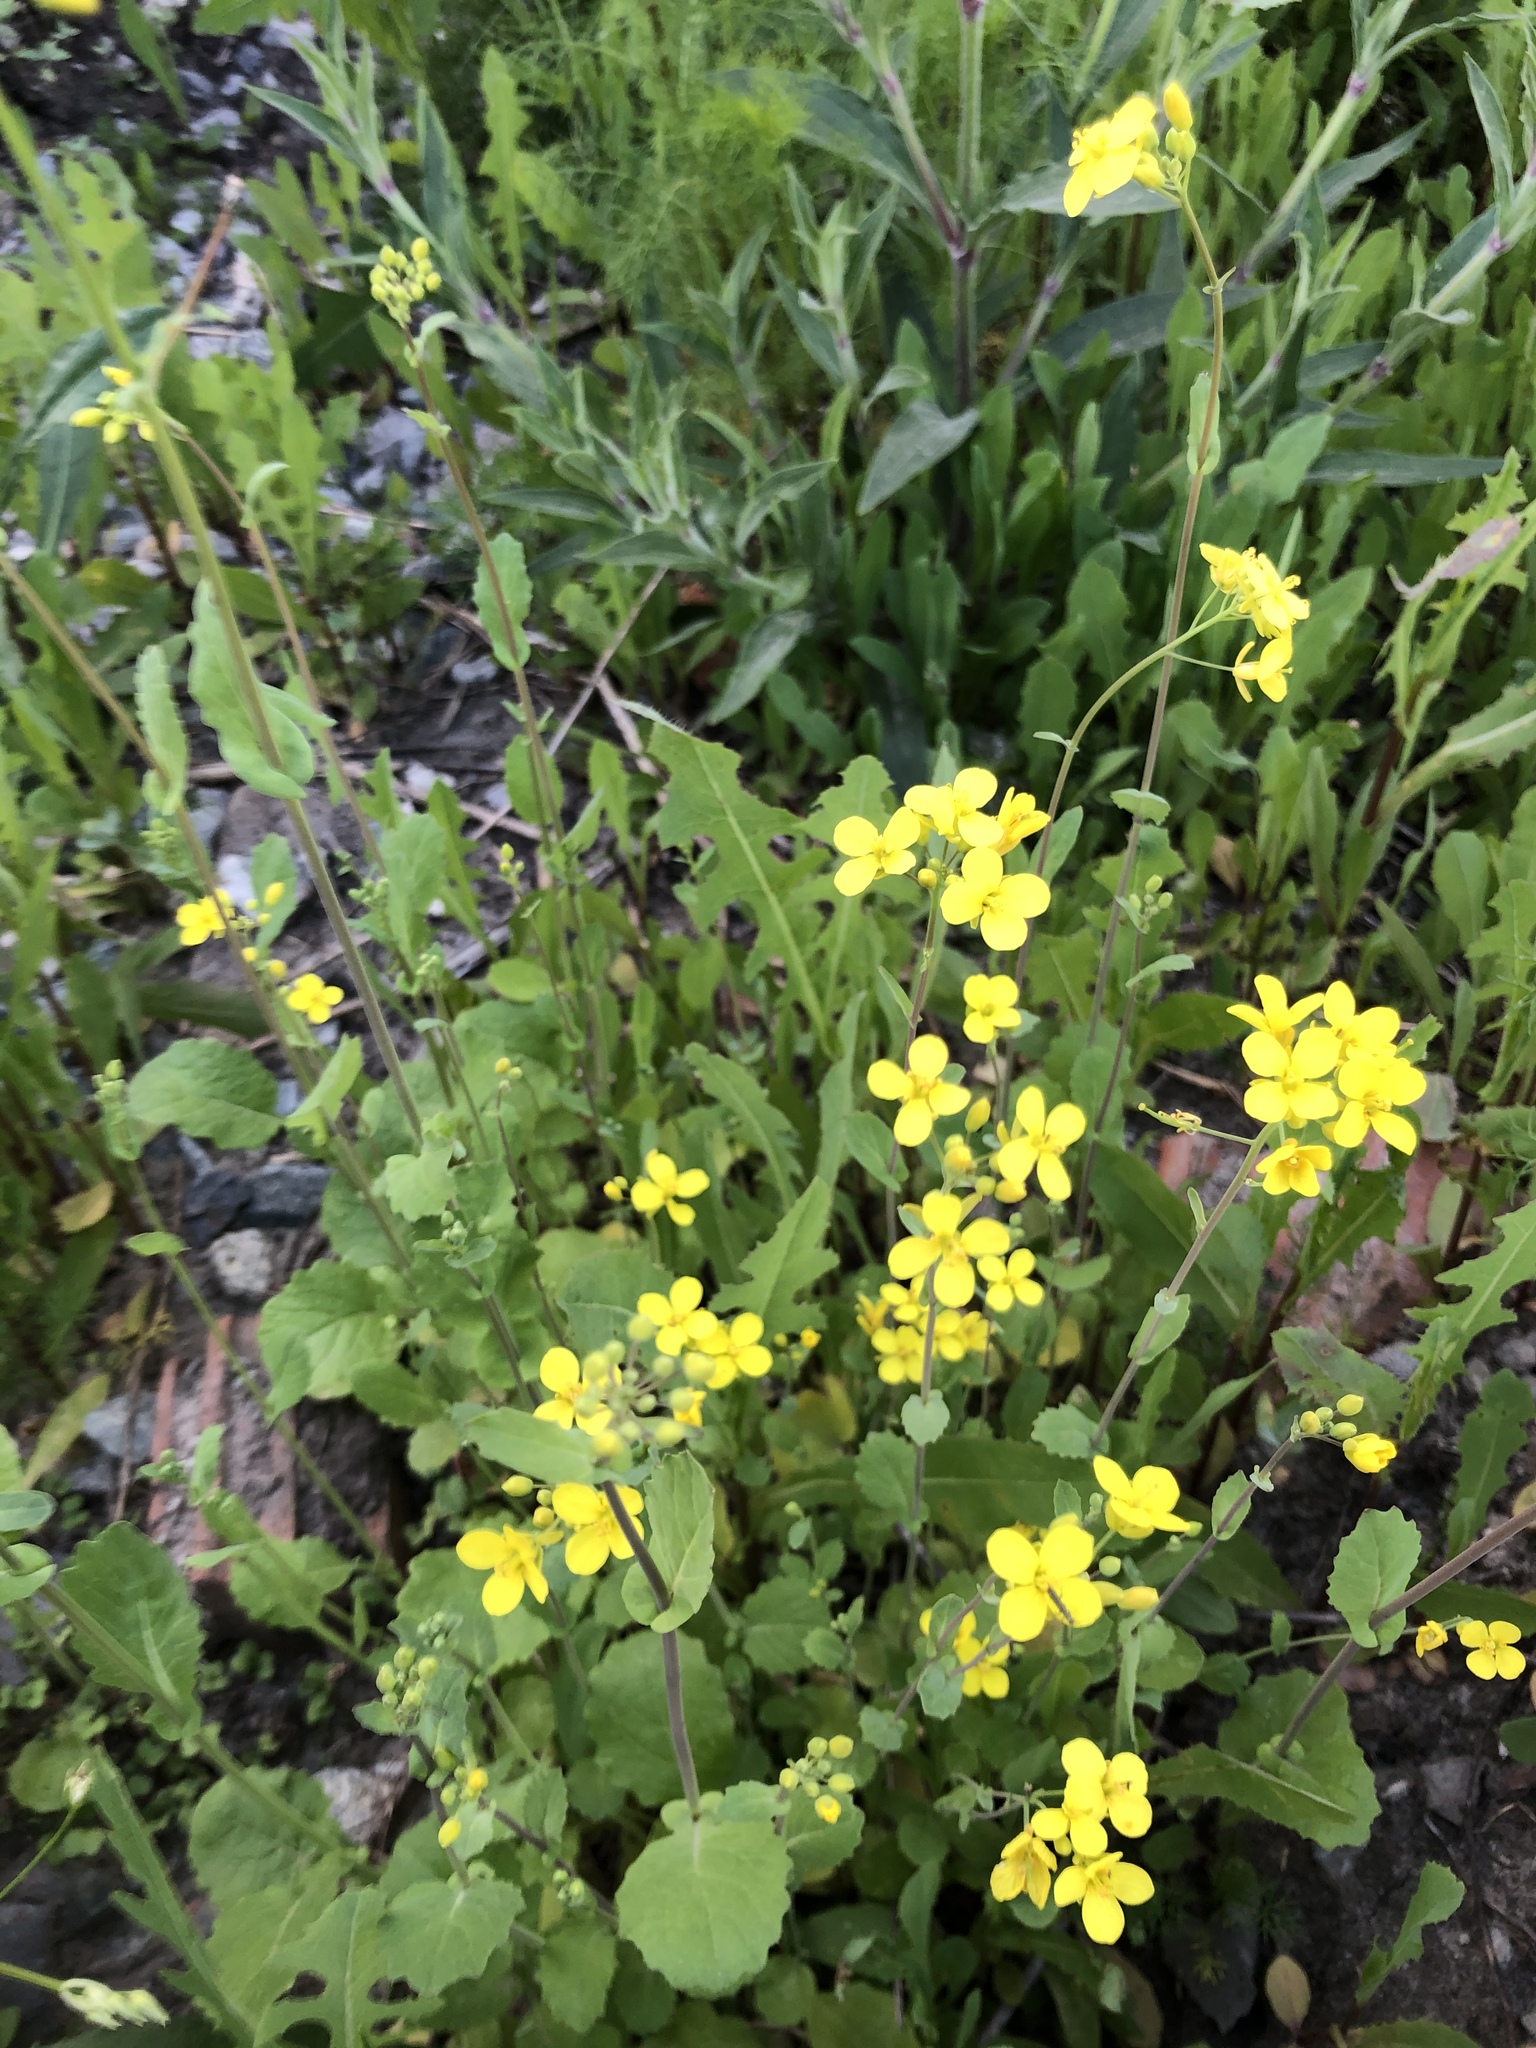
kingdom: Plantae
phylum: Tracheophyta
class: Magnoliopsida
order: Brassicales
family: Brassicaceae
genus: Brassica
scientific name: Brassica rapa
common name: Field mustard
